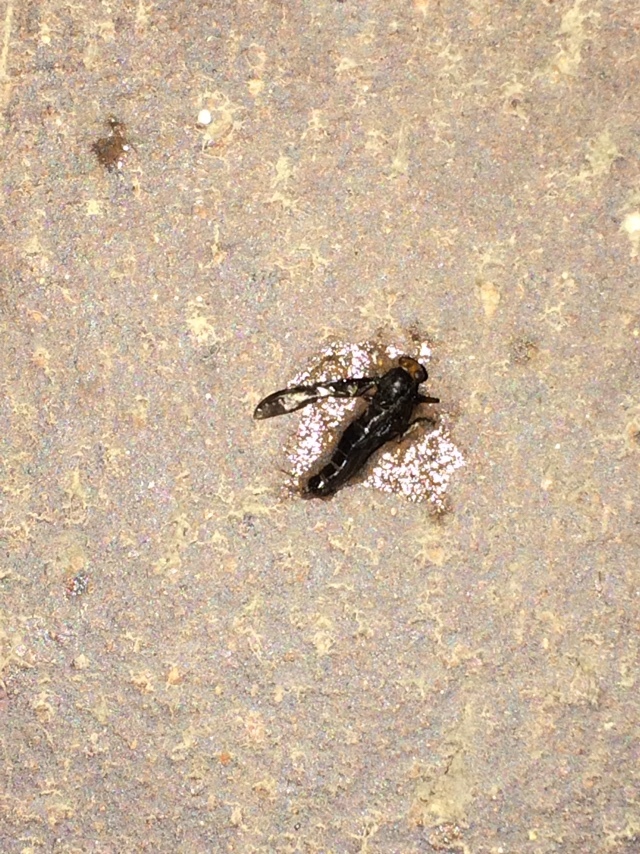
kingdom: Animalia
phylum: Arthropoda
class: Insecta
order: Diptera
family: Stratiomyidae
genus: Inopus
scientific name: Inopus rubriceps
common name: Soldier fly
